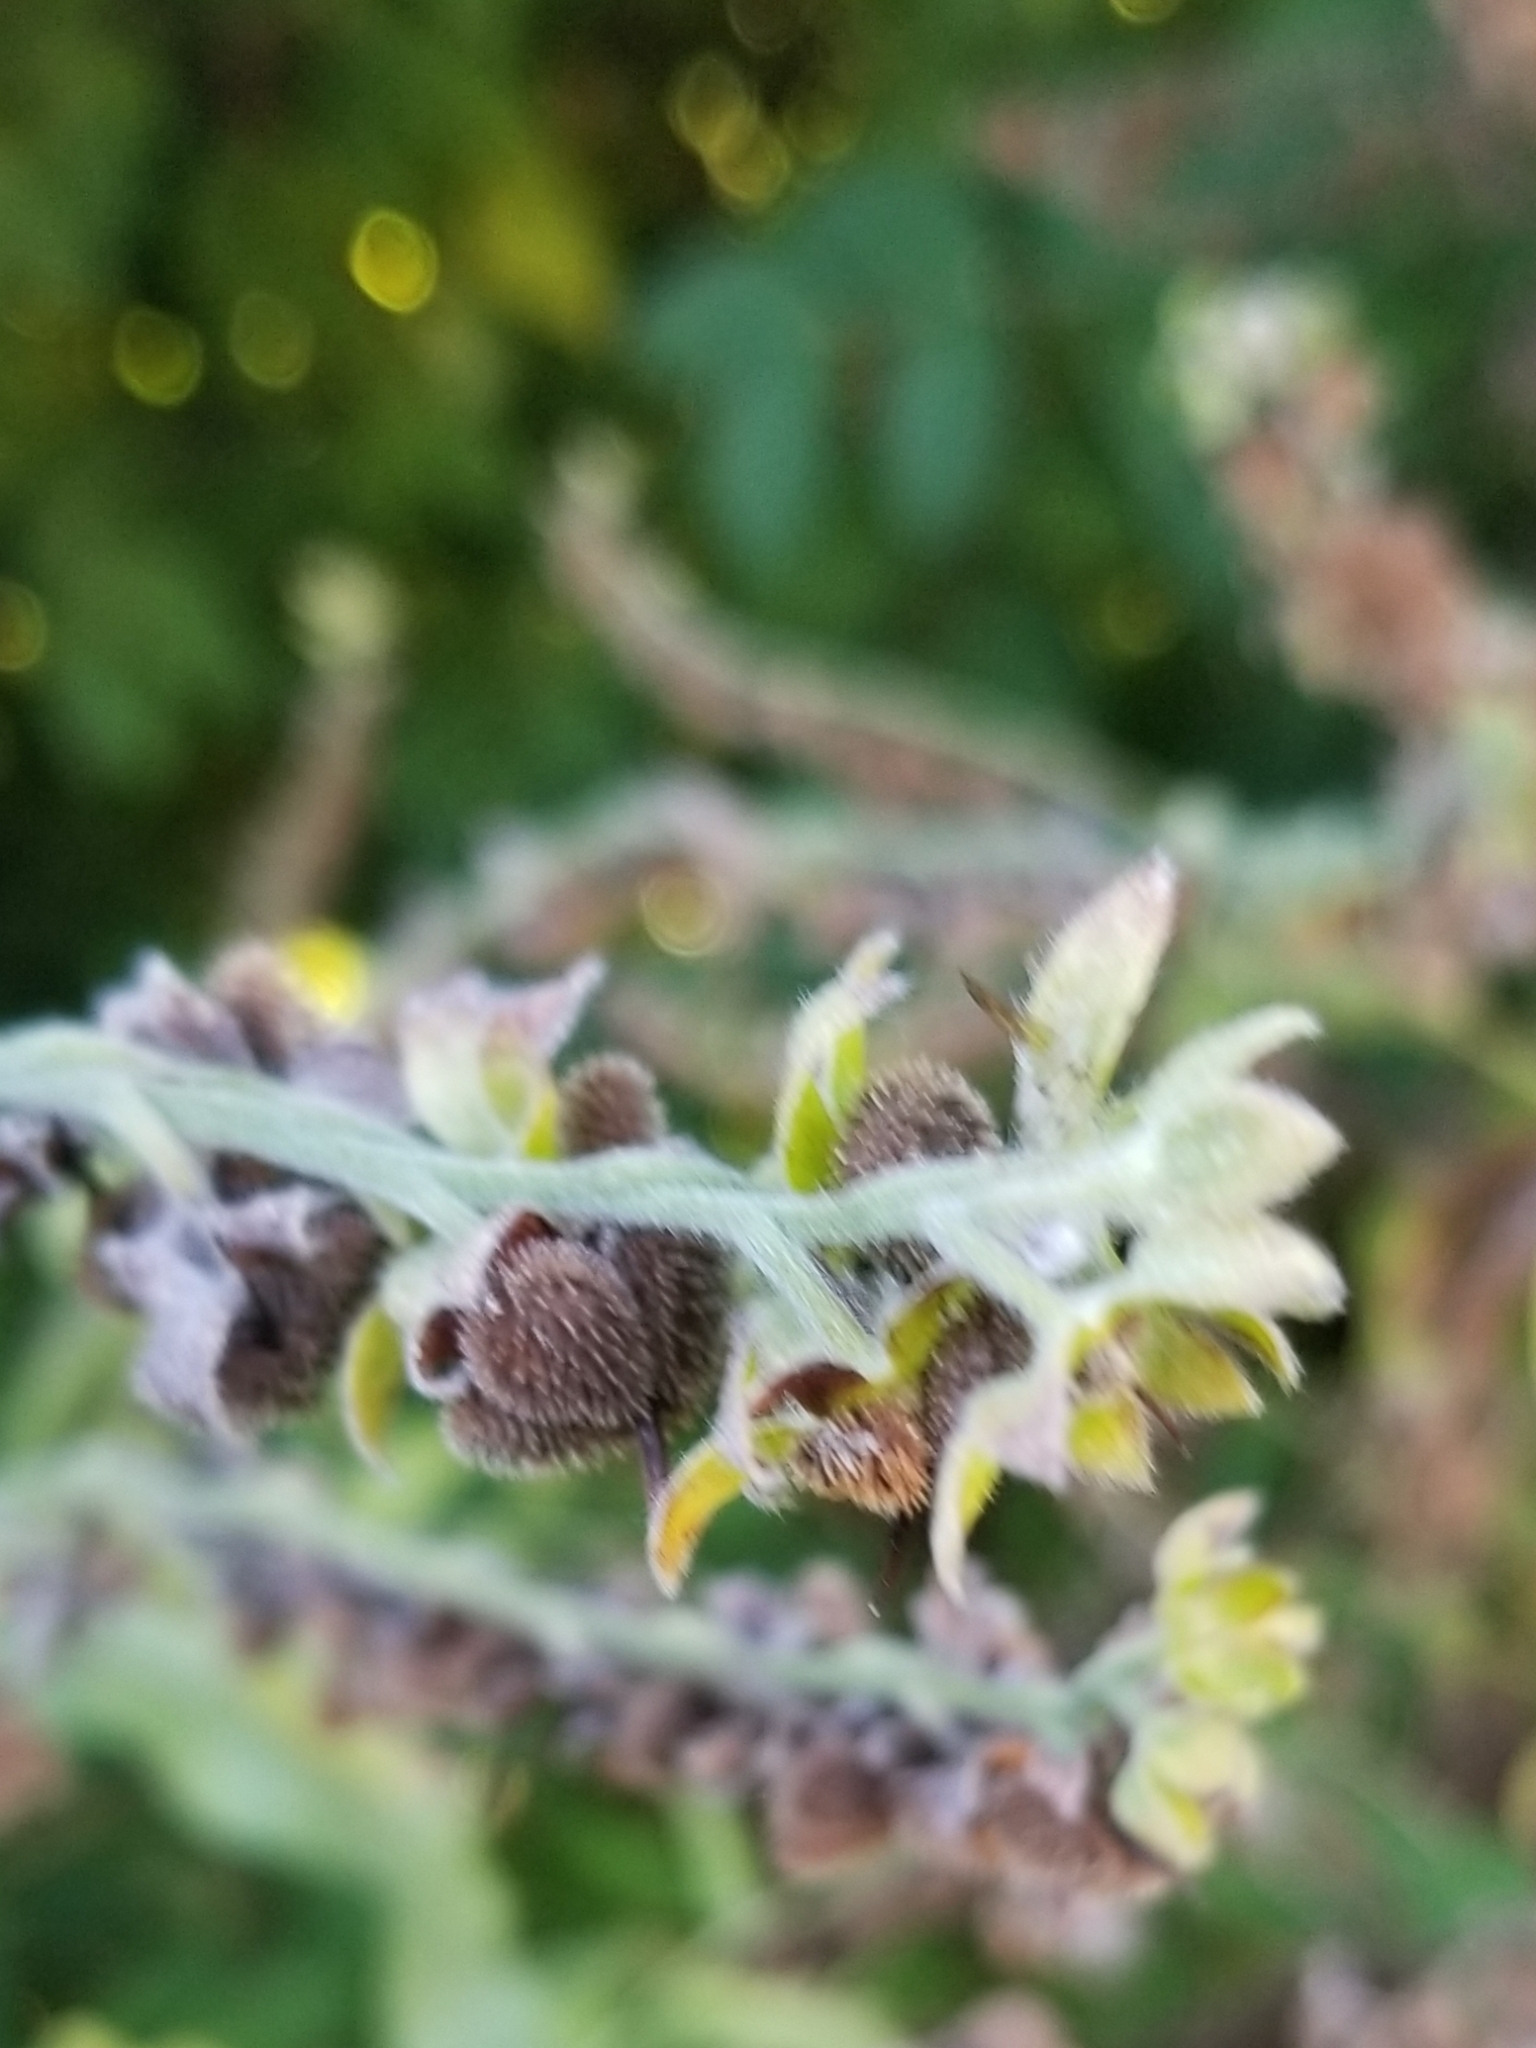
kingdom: Plantae
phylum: Tracheophyta
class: Magnoliopsida
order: Boraginales
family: Boraginaceae
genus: Hackelia
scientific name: Hackelia virginiana
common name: Beggar's-lice
